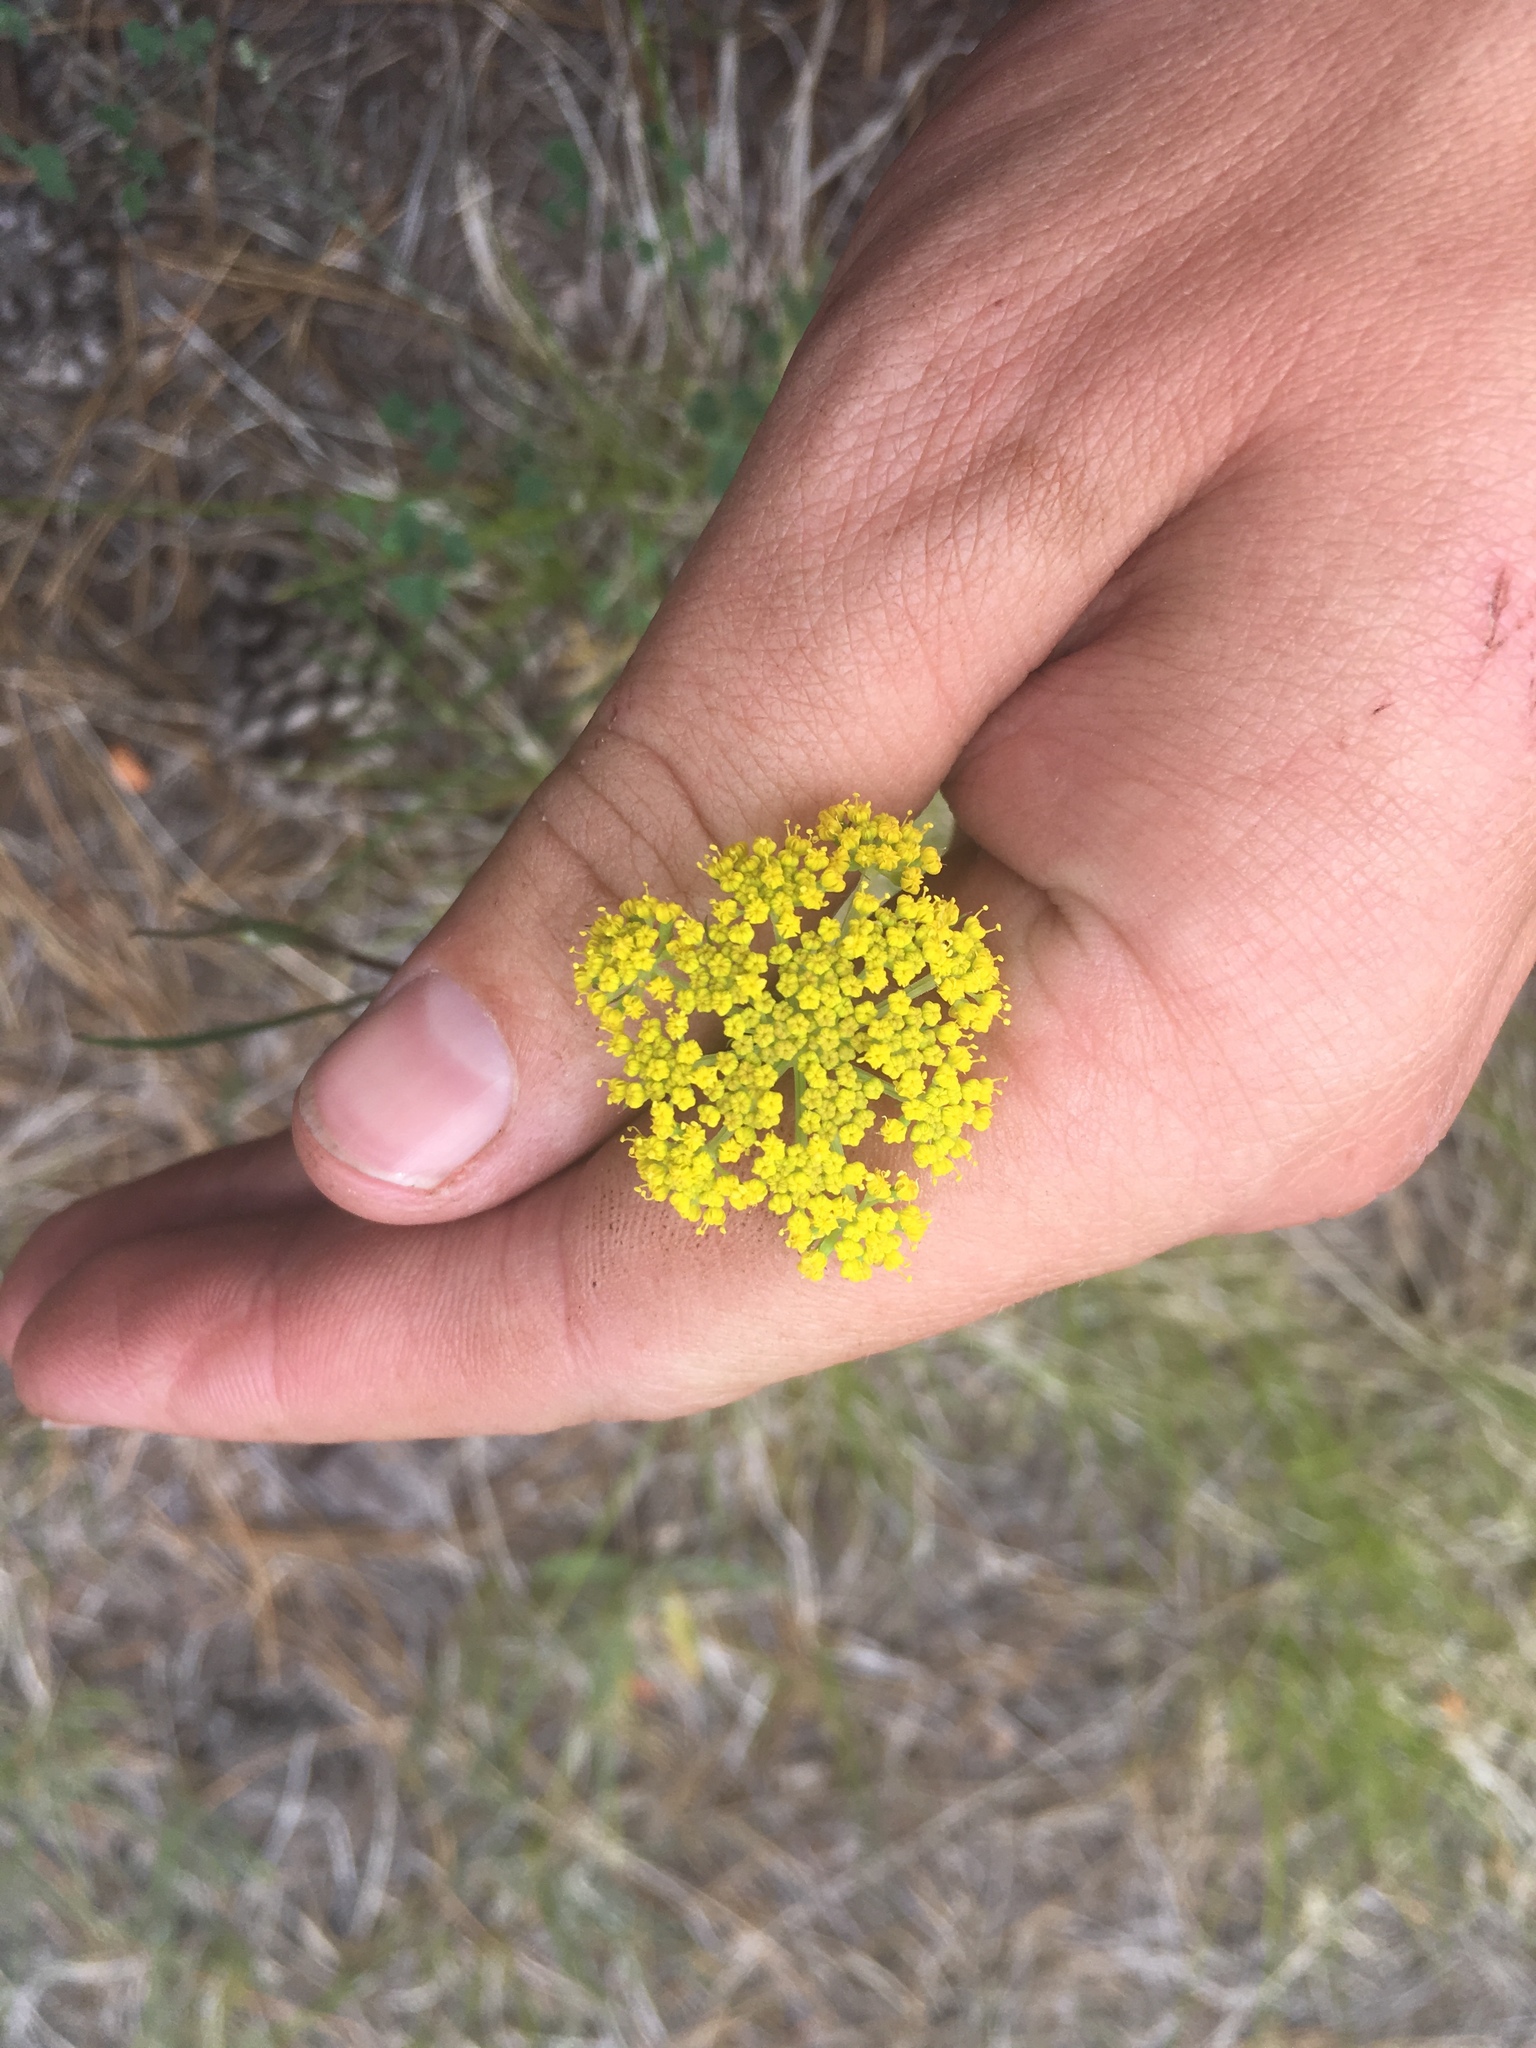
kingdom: Plantae
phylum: Tracheophyta
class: Magnoliopsida
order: Apiales
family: Apiaceae
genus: Cymopterus
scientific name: Cymopterus lemmonii
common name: Lemmon's spring-parsley
